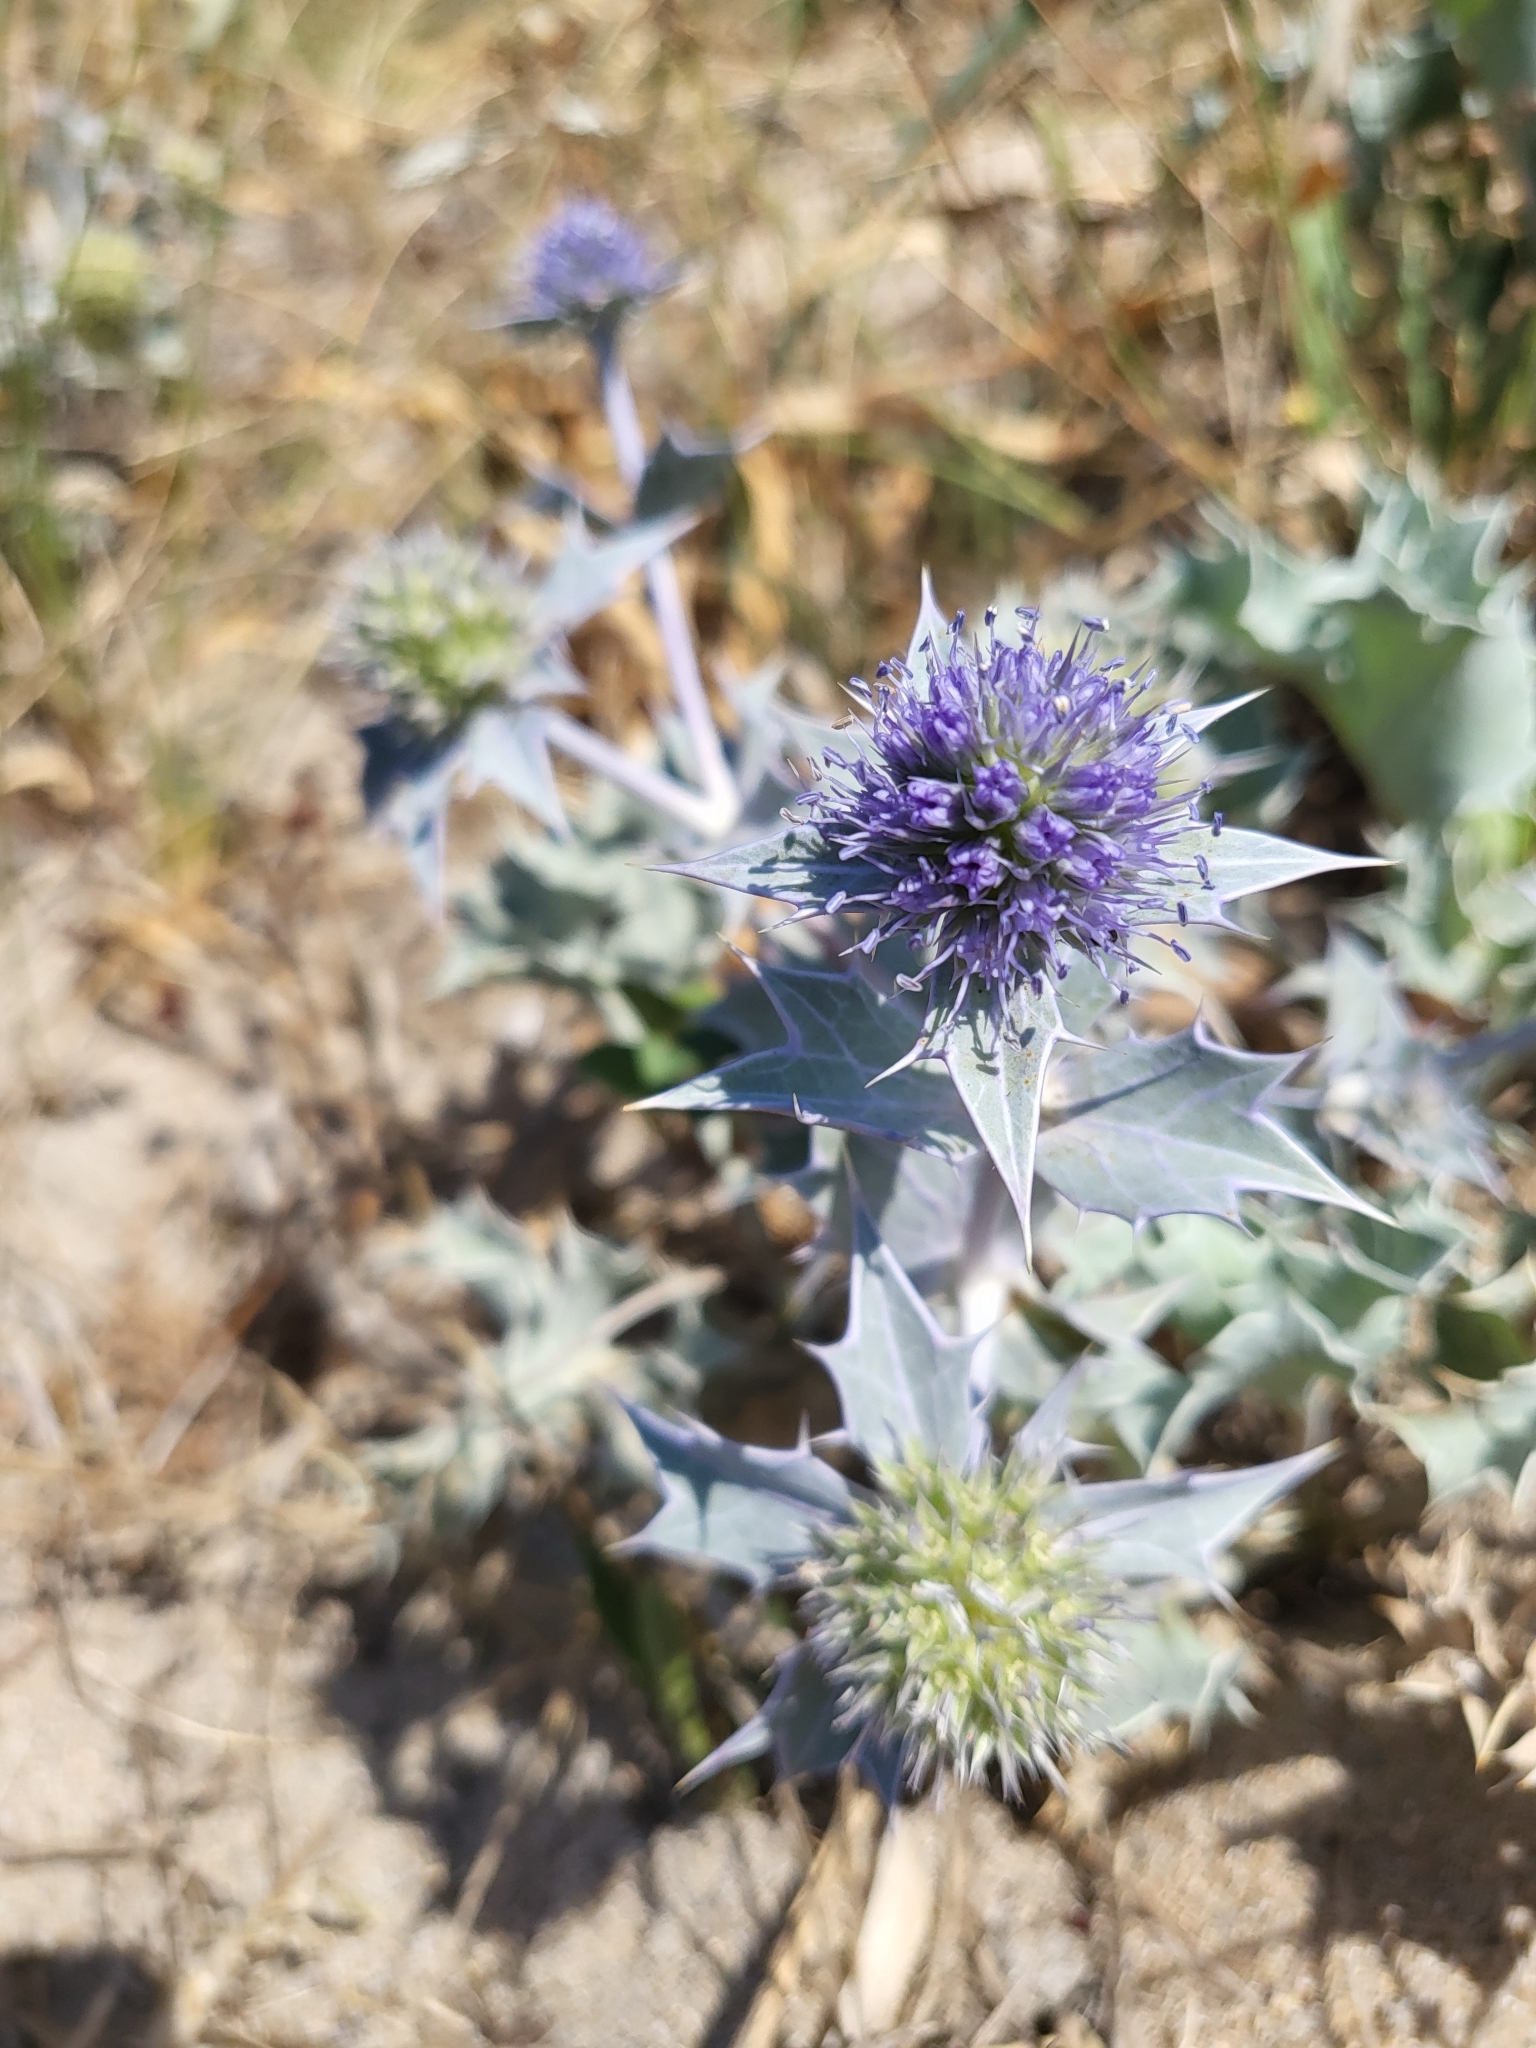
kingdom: Plantae
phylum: Tracheophyta
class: Magnoliopsida
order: Apiales
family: Apiaceae
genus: Eryngium
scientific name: Eryngium maritimum
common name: Sea-holly
